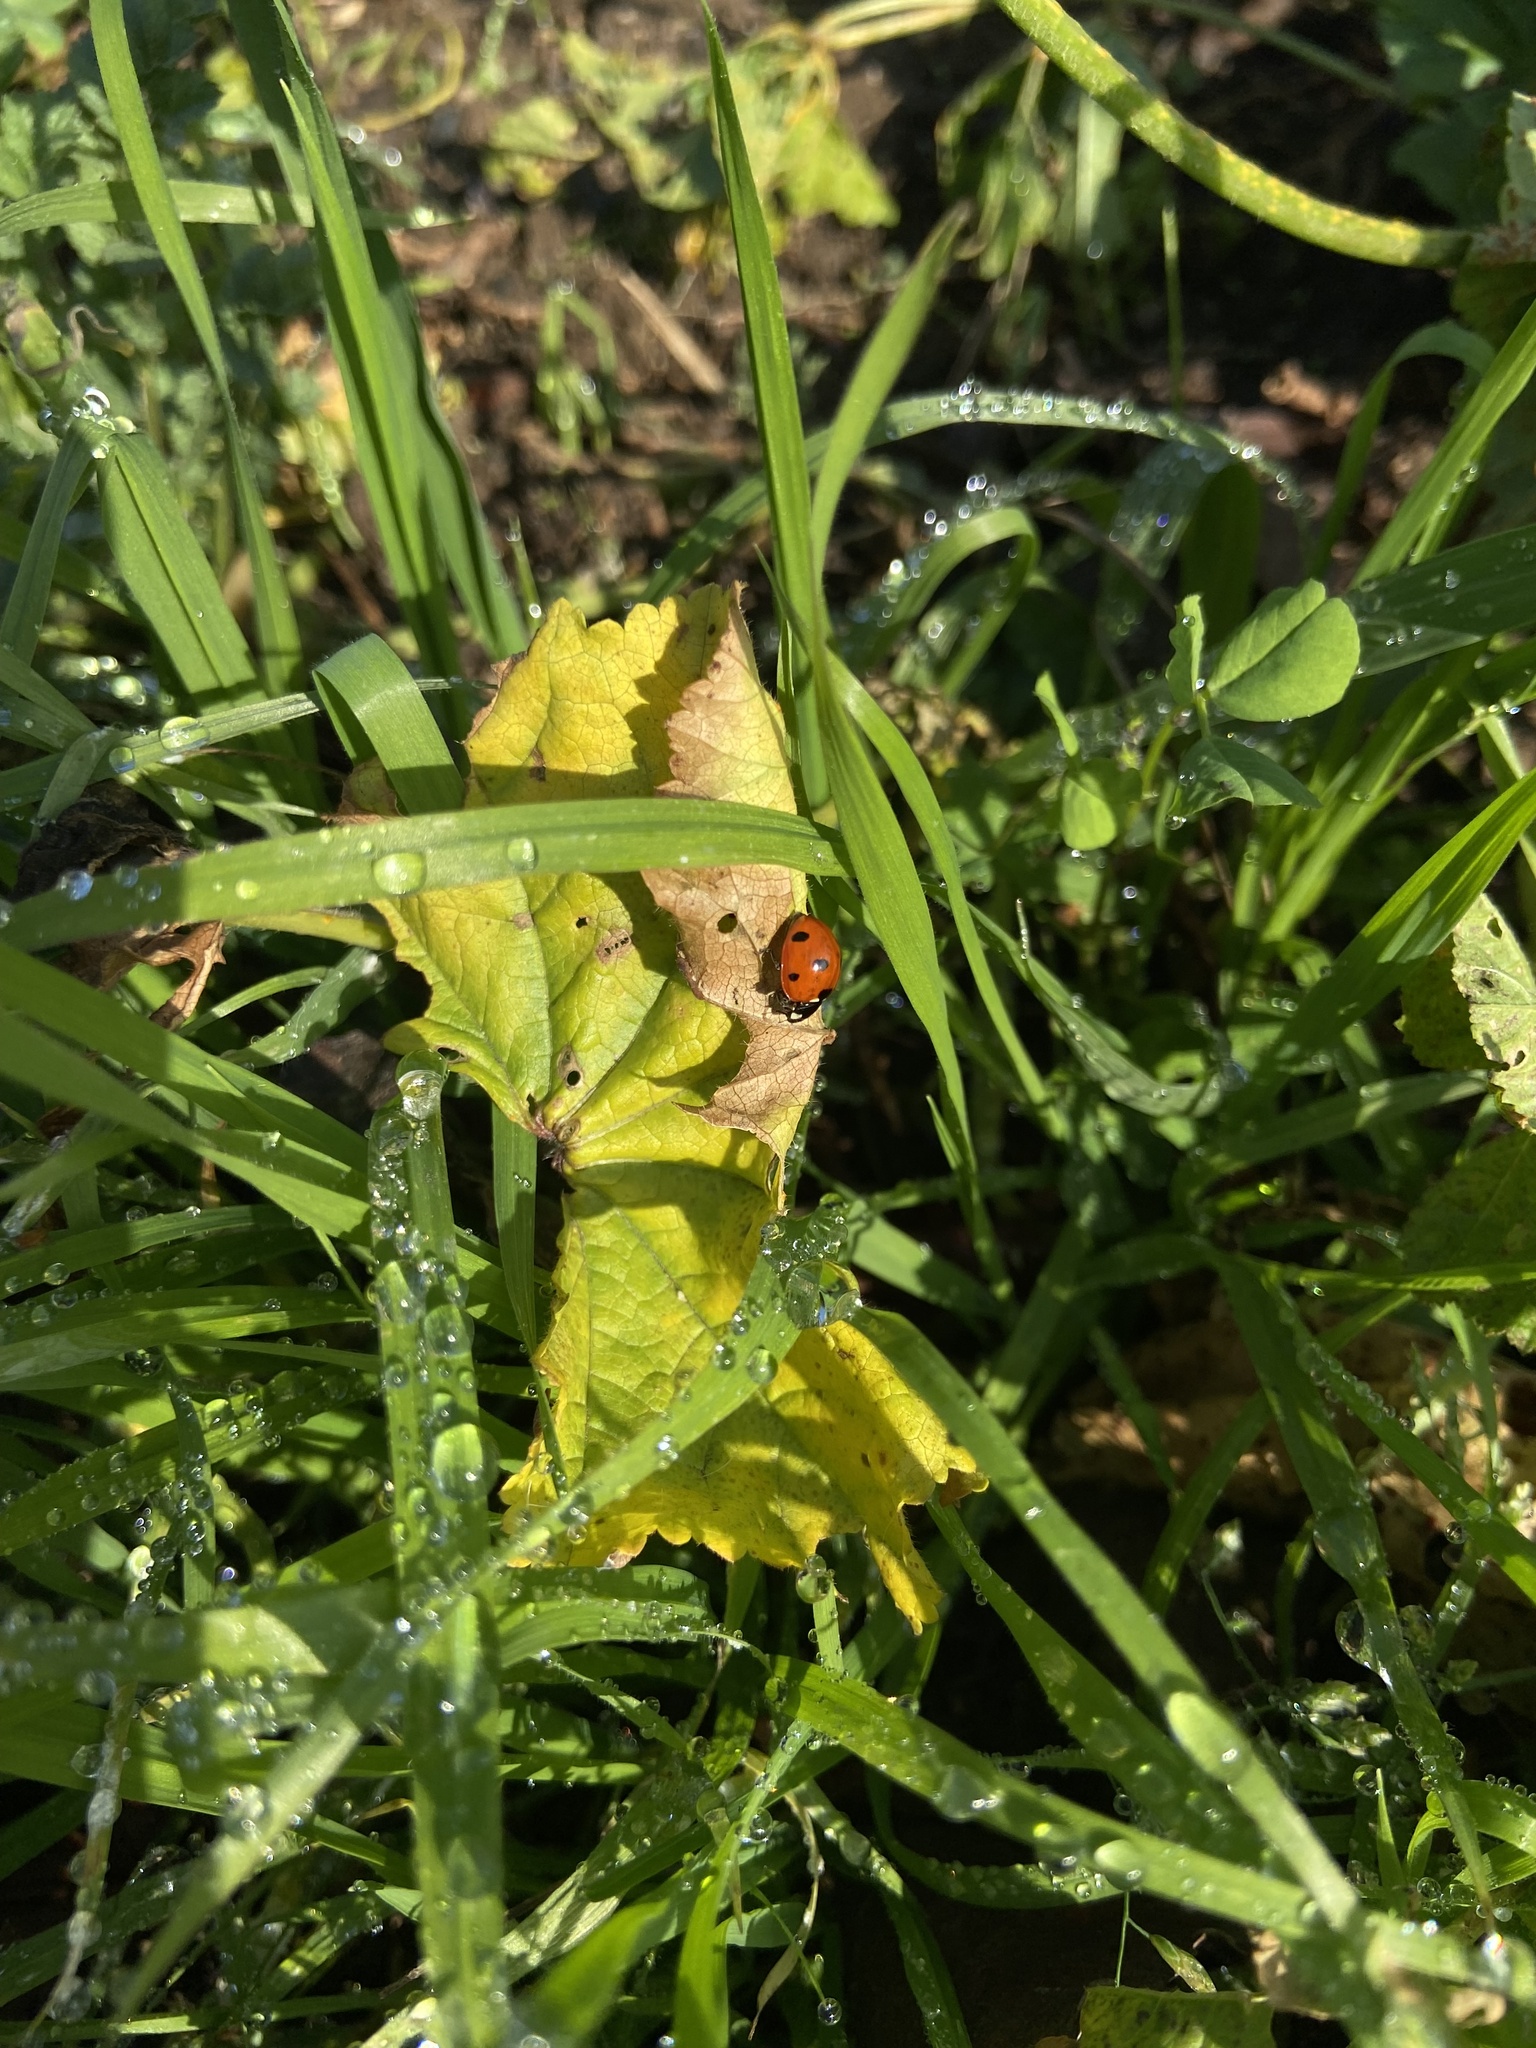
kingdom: Animalia
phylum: Arthropoda
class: Insecta
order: Coleoptera
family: Coccinellidae
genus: Coccinella
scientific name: Coccinella septempunctata
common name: Sevenspotted lady beetle
